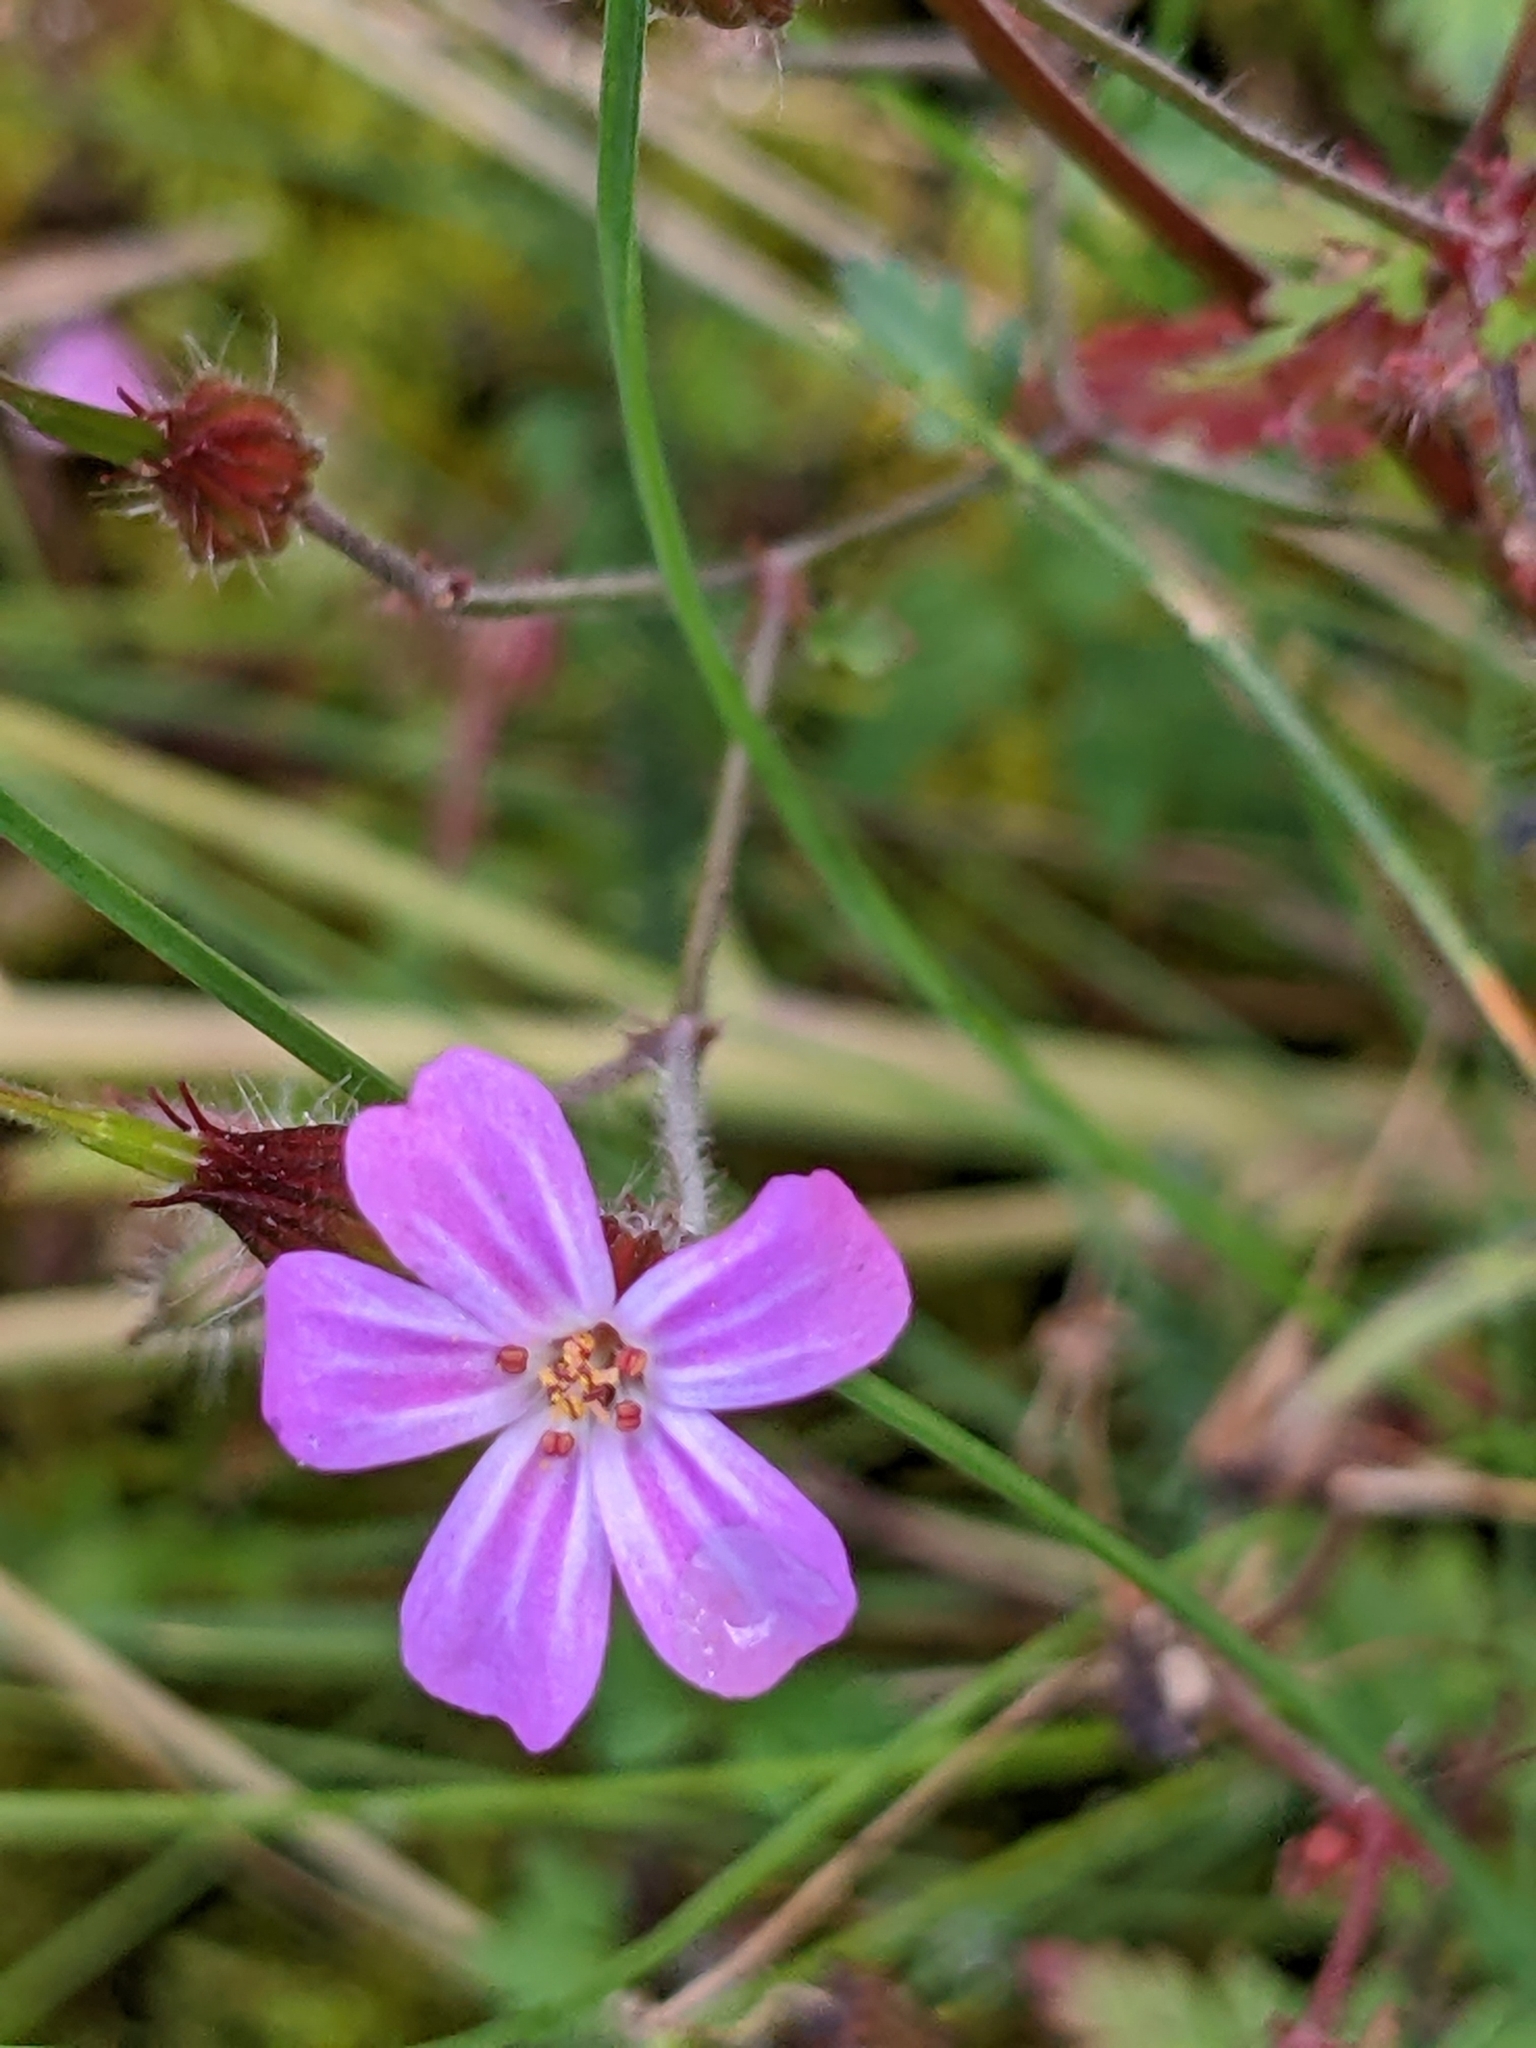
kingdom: Plantae
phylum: Tracheophyta
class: Magnoliopsida
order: Geraniales
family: Geraniaceae
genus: Geranium
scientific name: Geranium robertianum
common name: Herb-robert
